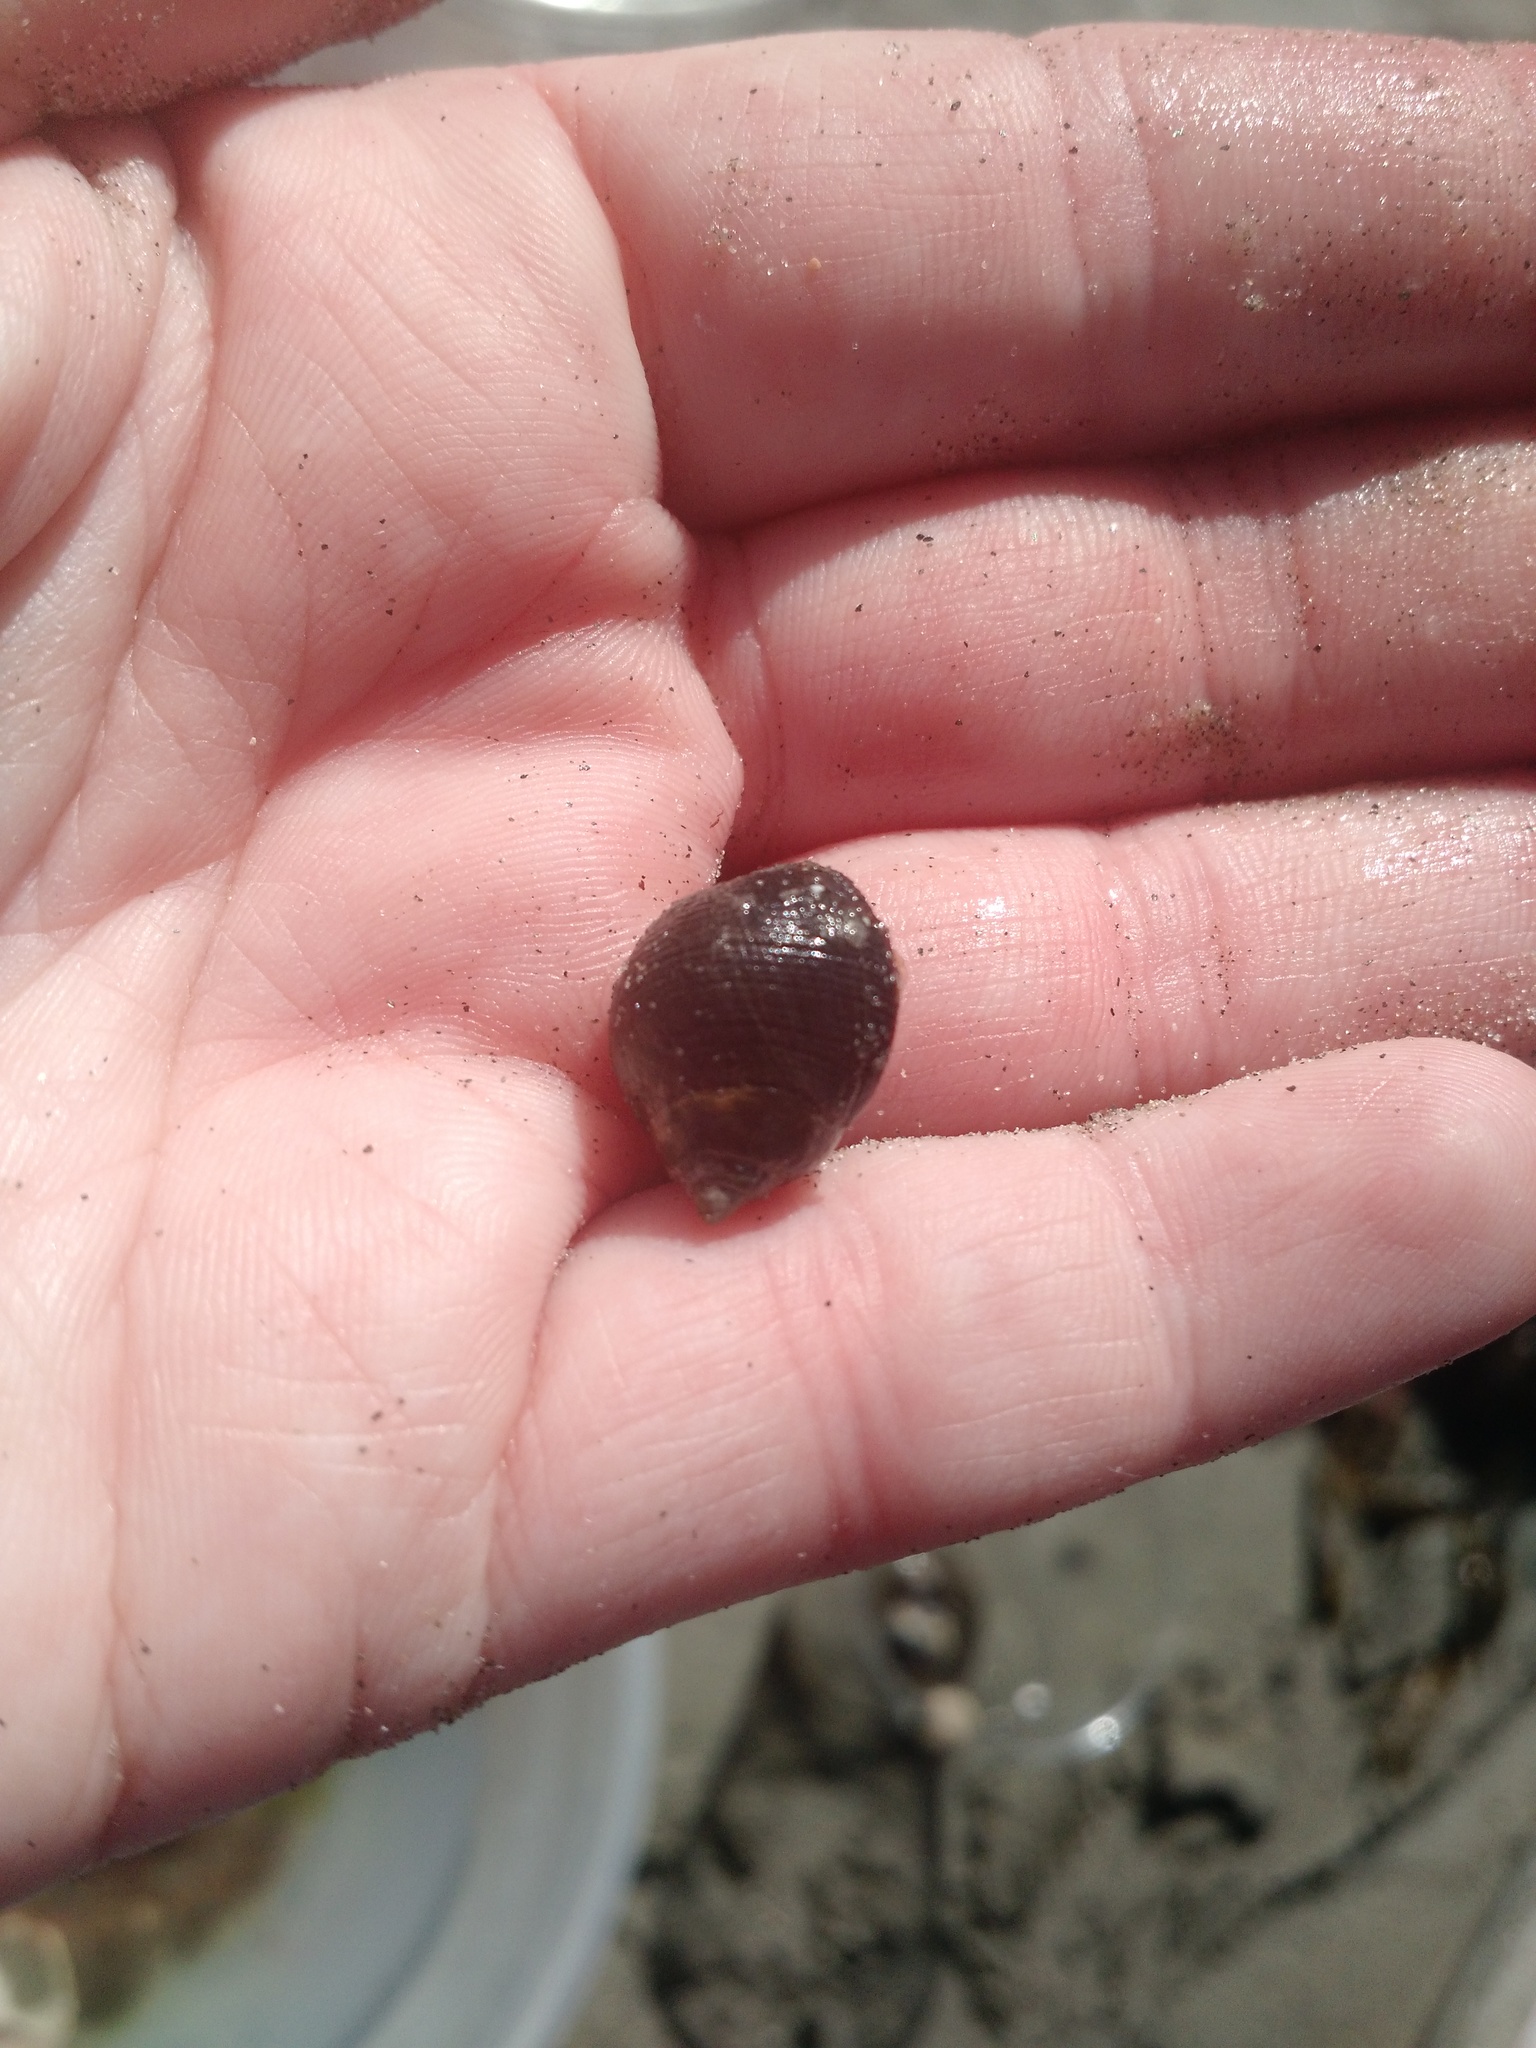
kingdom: Animalia
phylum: Mollusca
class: Gastropoda
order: Littorinimorpha
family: Littorinidae
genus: Littorina
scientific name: Littorina littorea
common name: Common periwinkle
